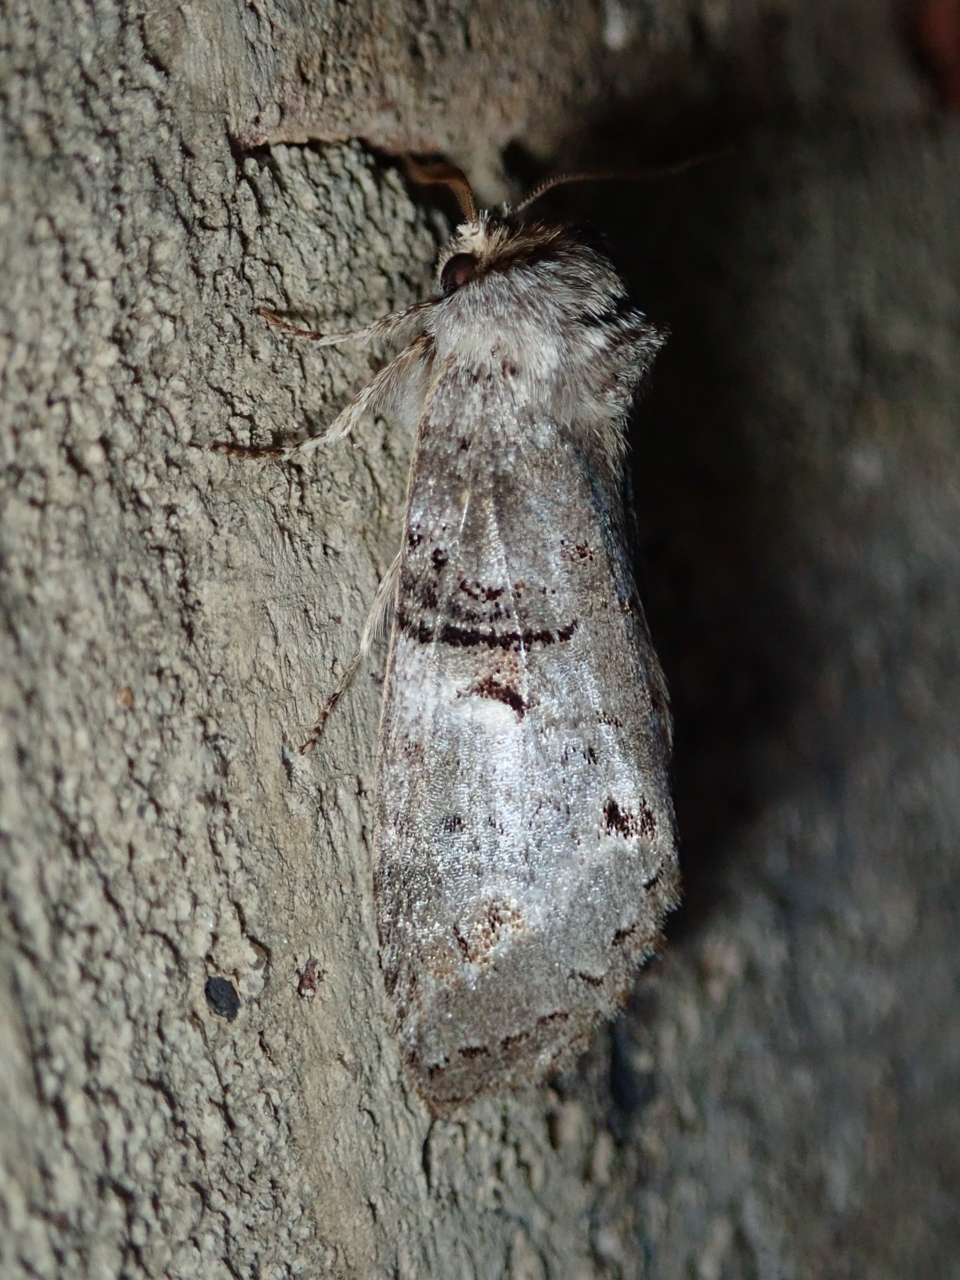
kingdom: Animalia
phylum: Arthropoda
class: Insecta
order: Lepidoptera
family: Notodontidae
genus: Ellida
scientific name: Ellida caniplaga
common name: Linden prominent
